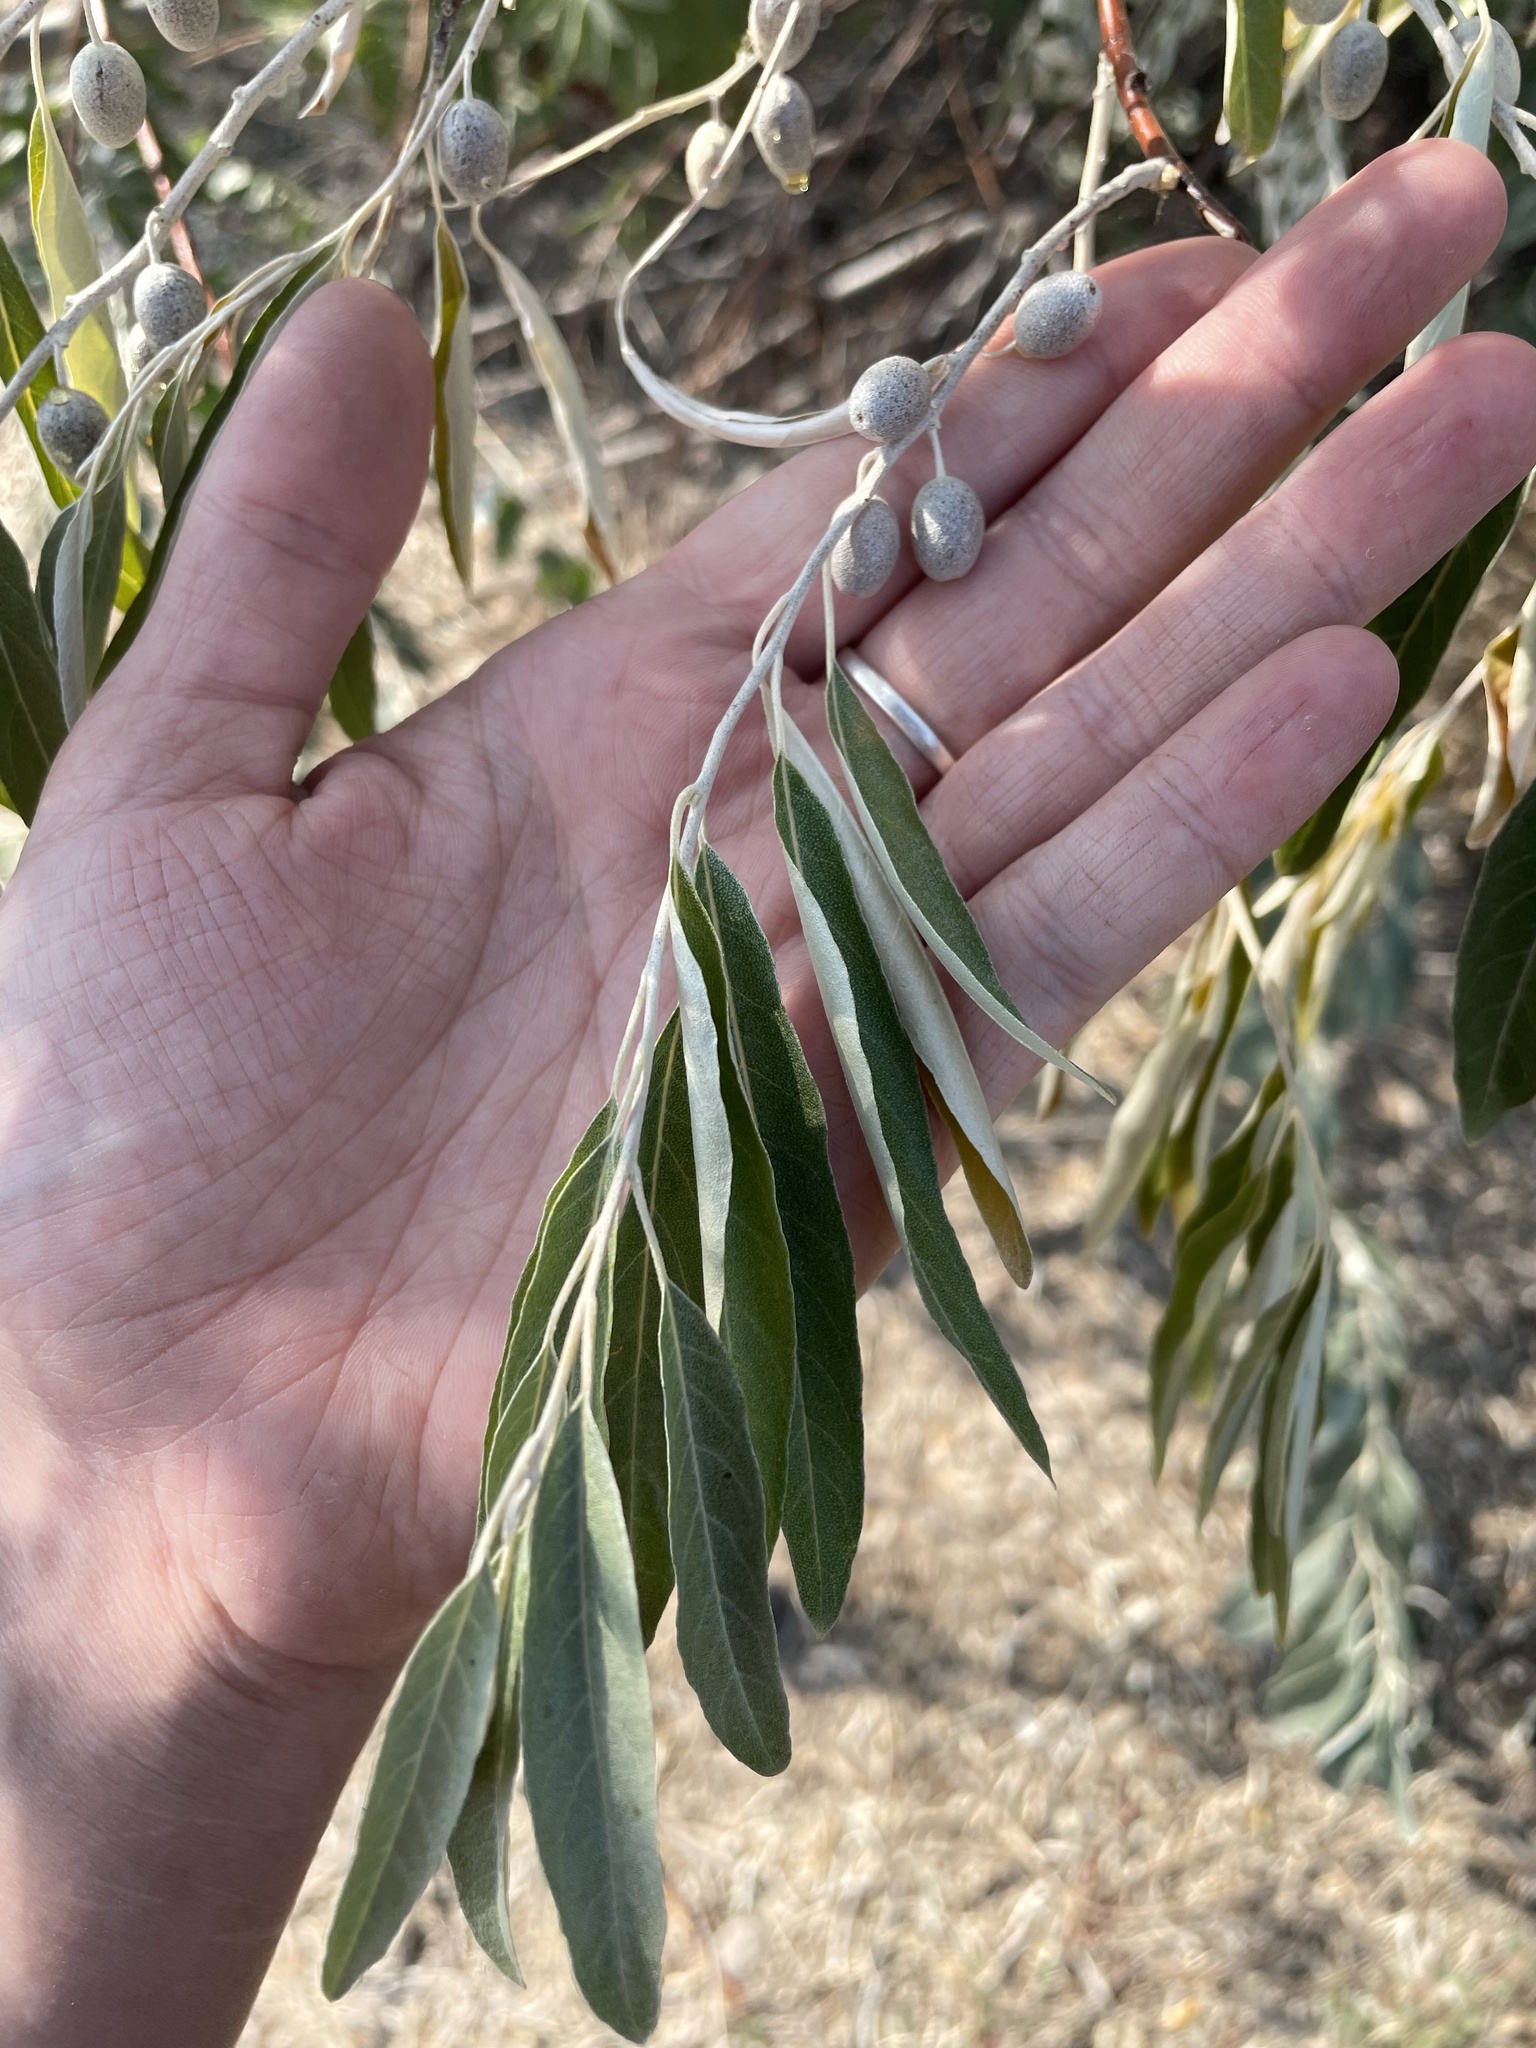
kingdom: Plantae
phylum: Tracheophyta
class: Magnoliopsida
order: Rosales
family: Elaeagnaceae
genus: Elaeagnus
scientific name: Elaeagnus angustifolia
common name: Russian olive
